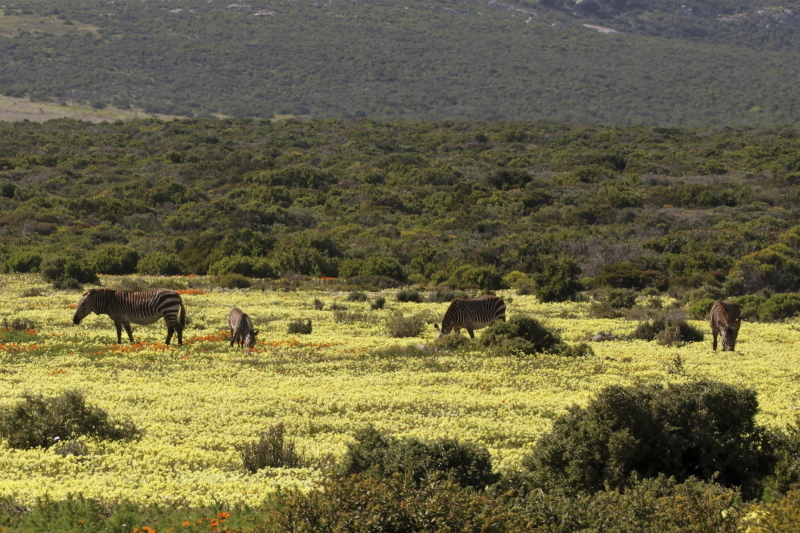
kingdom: Animalia
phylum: Chordata
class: Mammalia
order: Perissodactyla
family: Equidae
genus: Equus
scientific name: Equus zebra
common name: Mountain zebra
